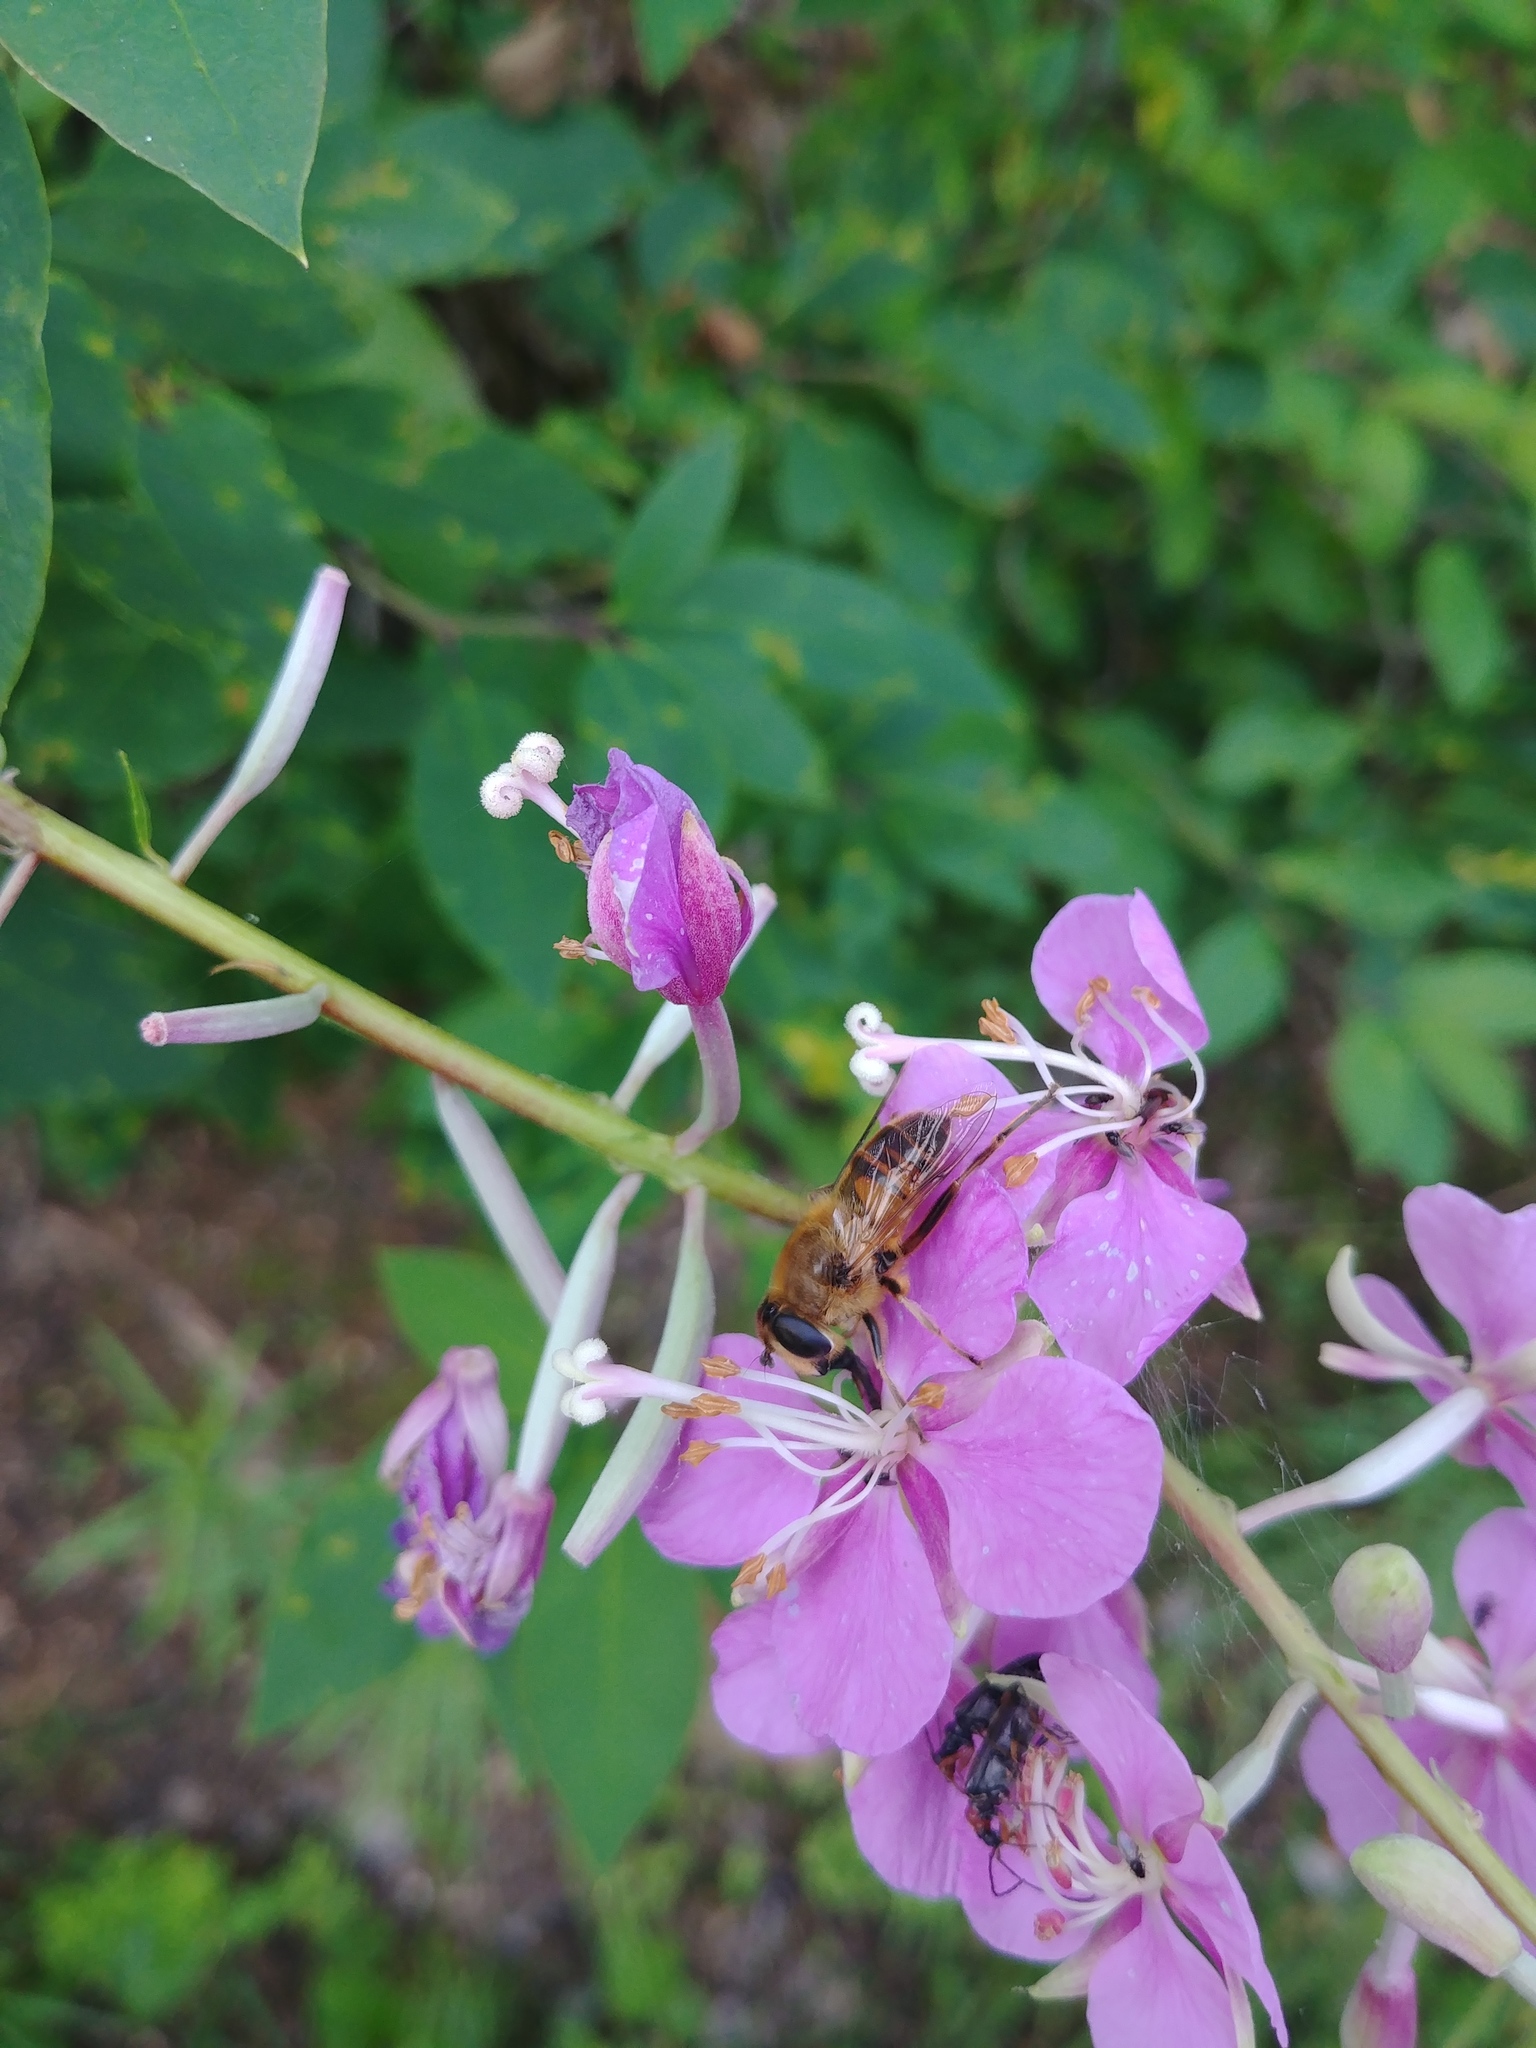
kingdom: Animalia
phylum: Arthropoda
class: Insecta
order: Diptera
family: Syrphidae
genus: Eristalis
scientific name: Eristalis tenax
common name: Drone fly
